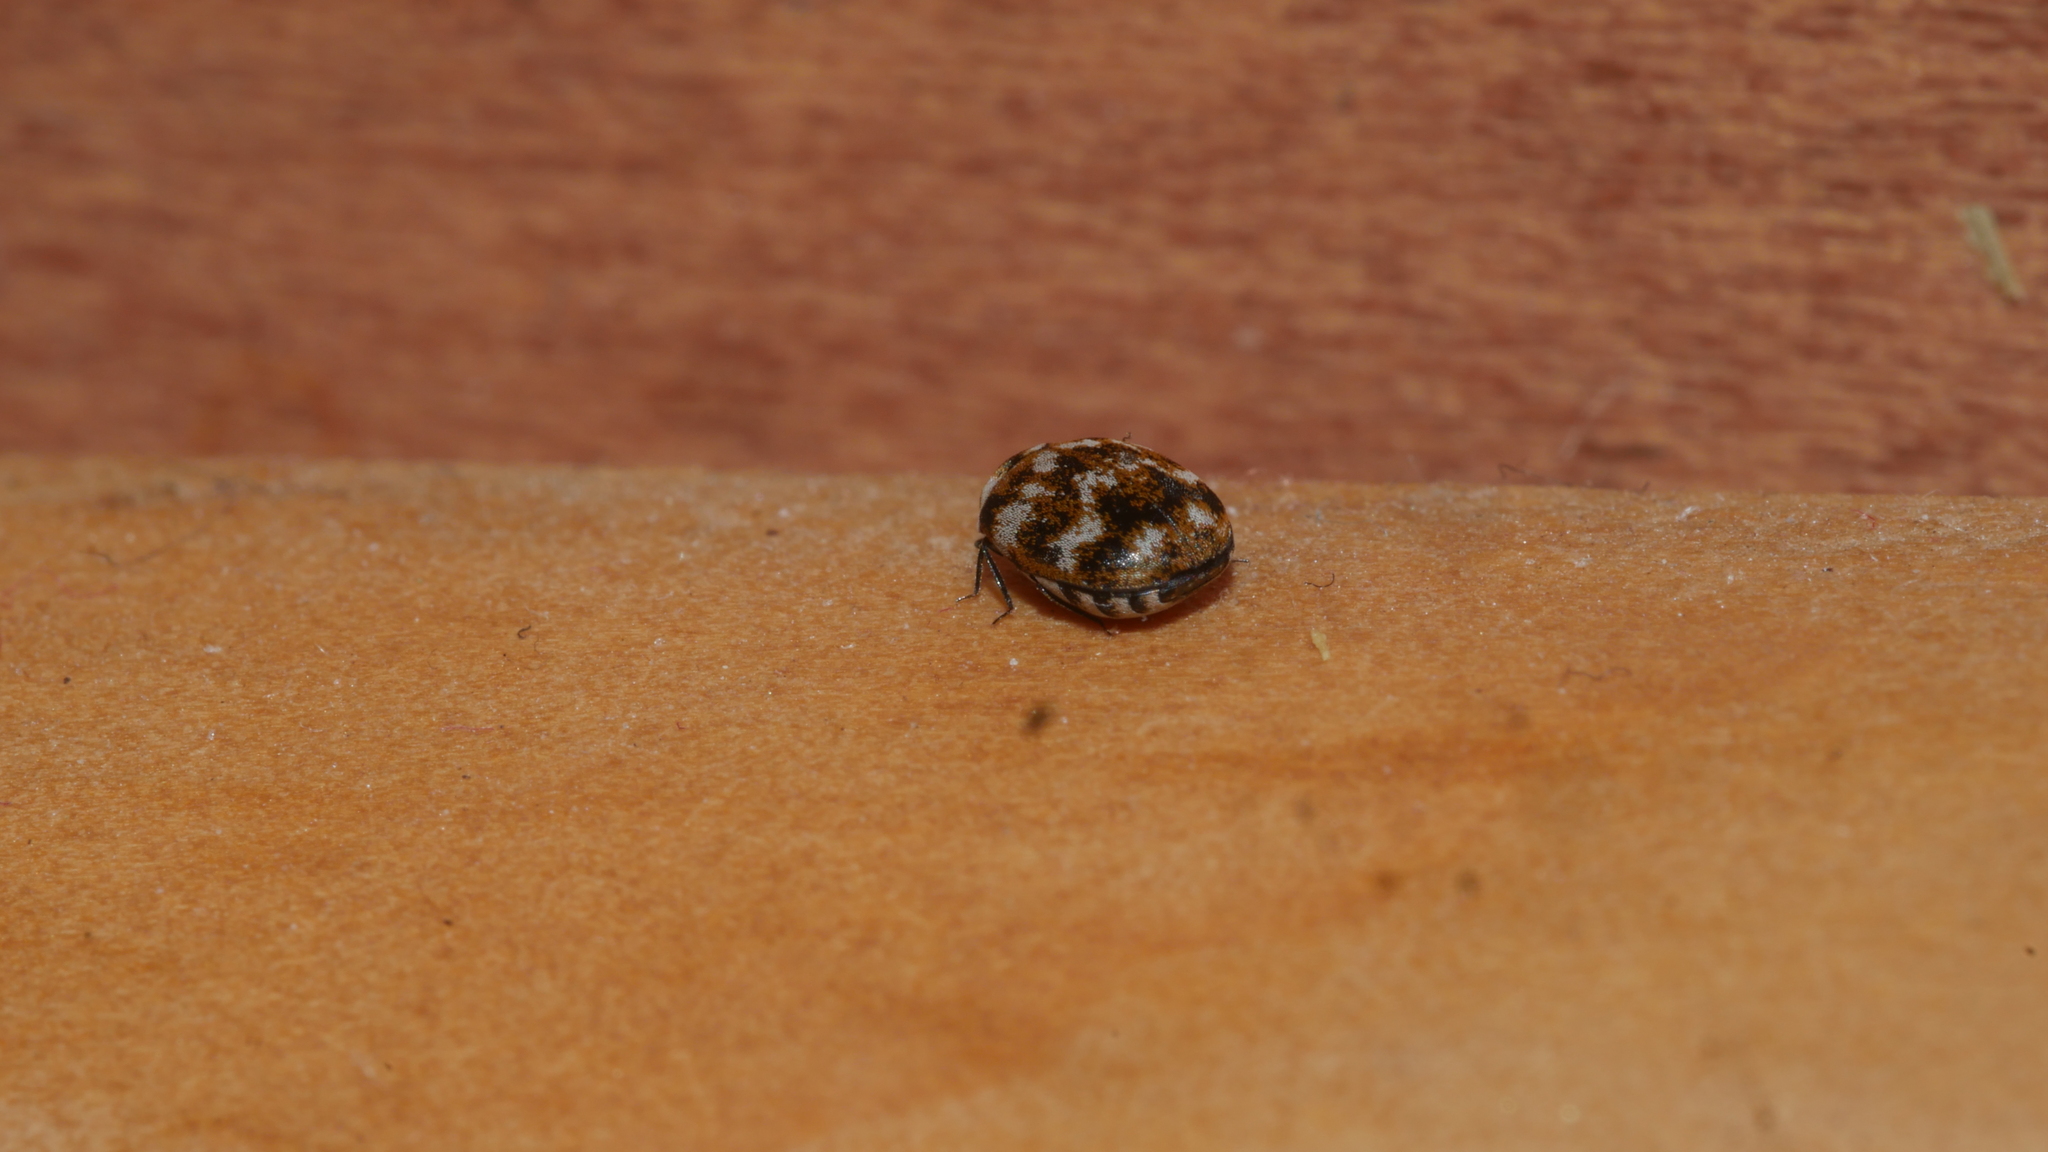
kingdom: Animalia
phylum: Arthropoda
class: Insecta
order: Coleoptera
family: Dermestidae
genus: Anthrenus
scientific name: Anthrenus verbasci
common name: Varied carpet beetle
